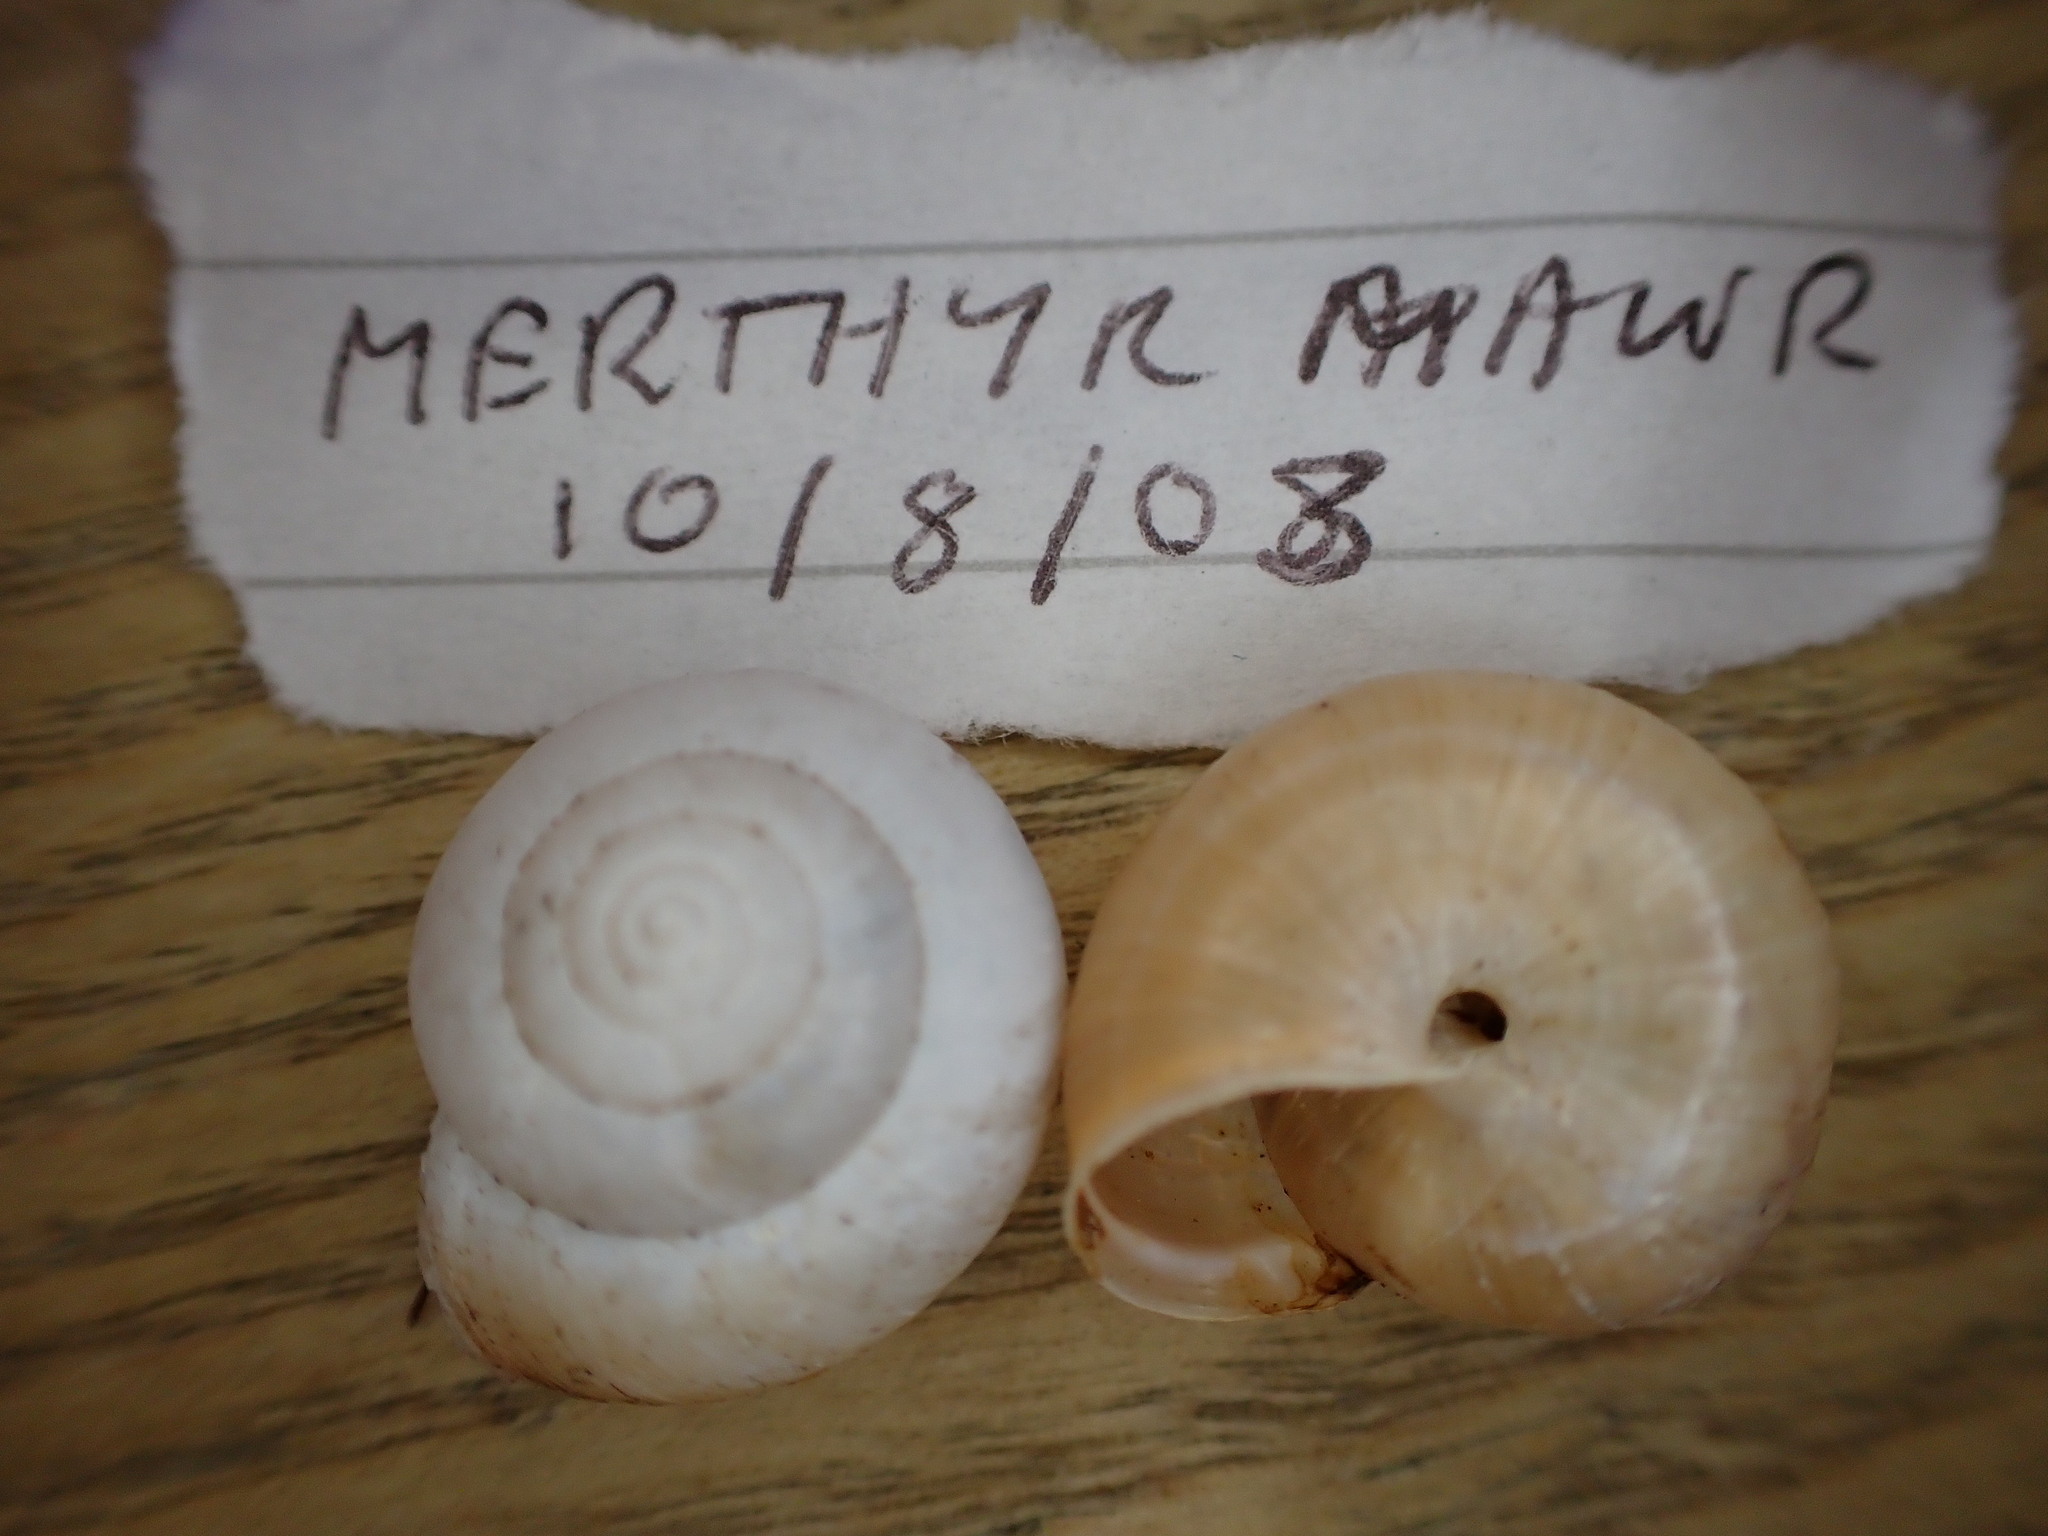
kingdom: Animalia
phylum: Mollusca
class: Gastropoda
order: Stylommatophora
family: Hygromiidae
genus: Monacha
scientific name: Monacha cantiana
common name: Kentish snail
